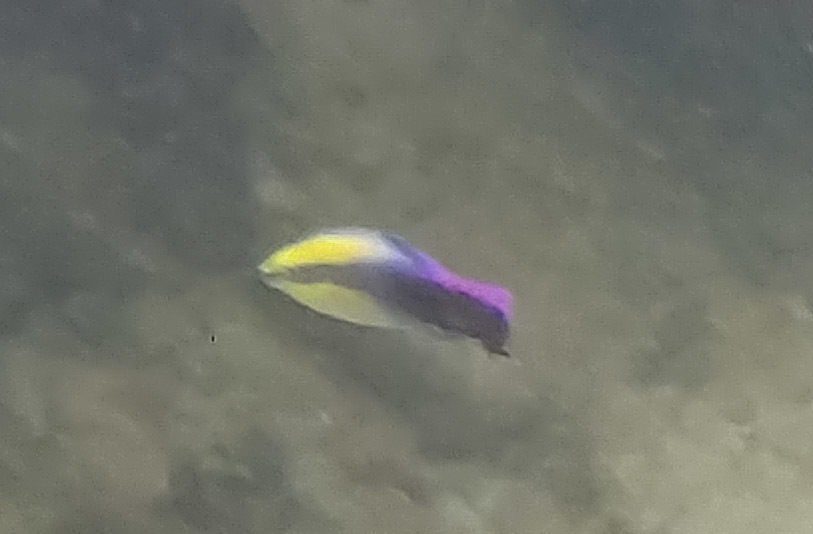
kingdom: Animalia
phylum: Chordata
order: Perciformes
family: Labridae
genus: Labroides
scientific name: Labroides phthirophagus
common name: Cleaner wrasse
